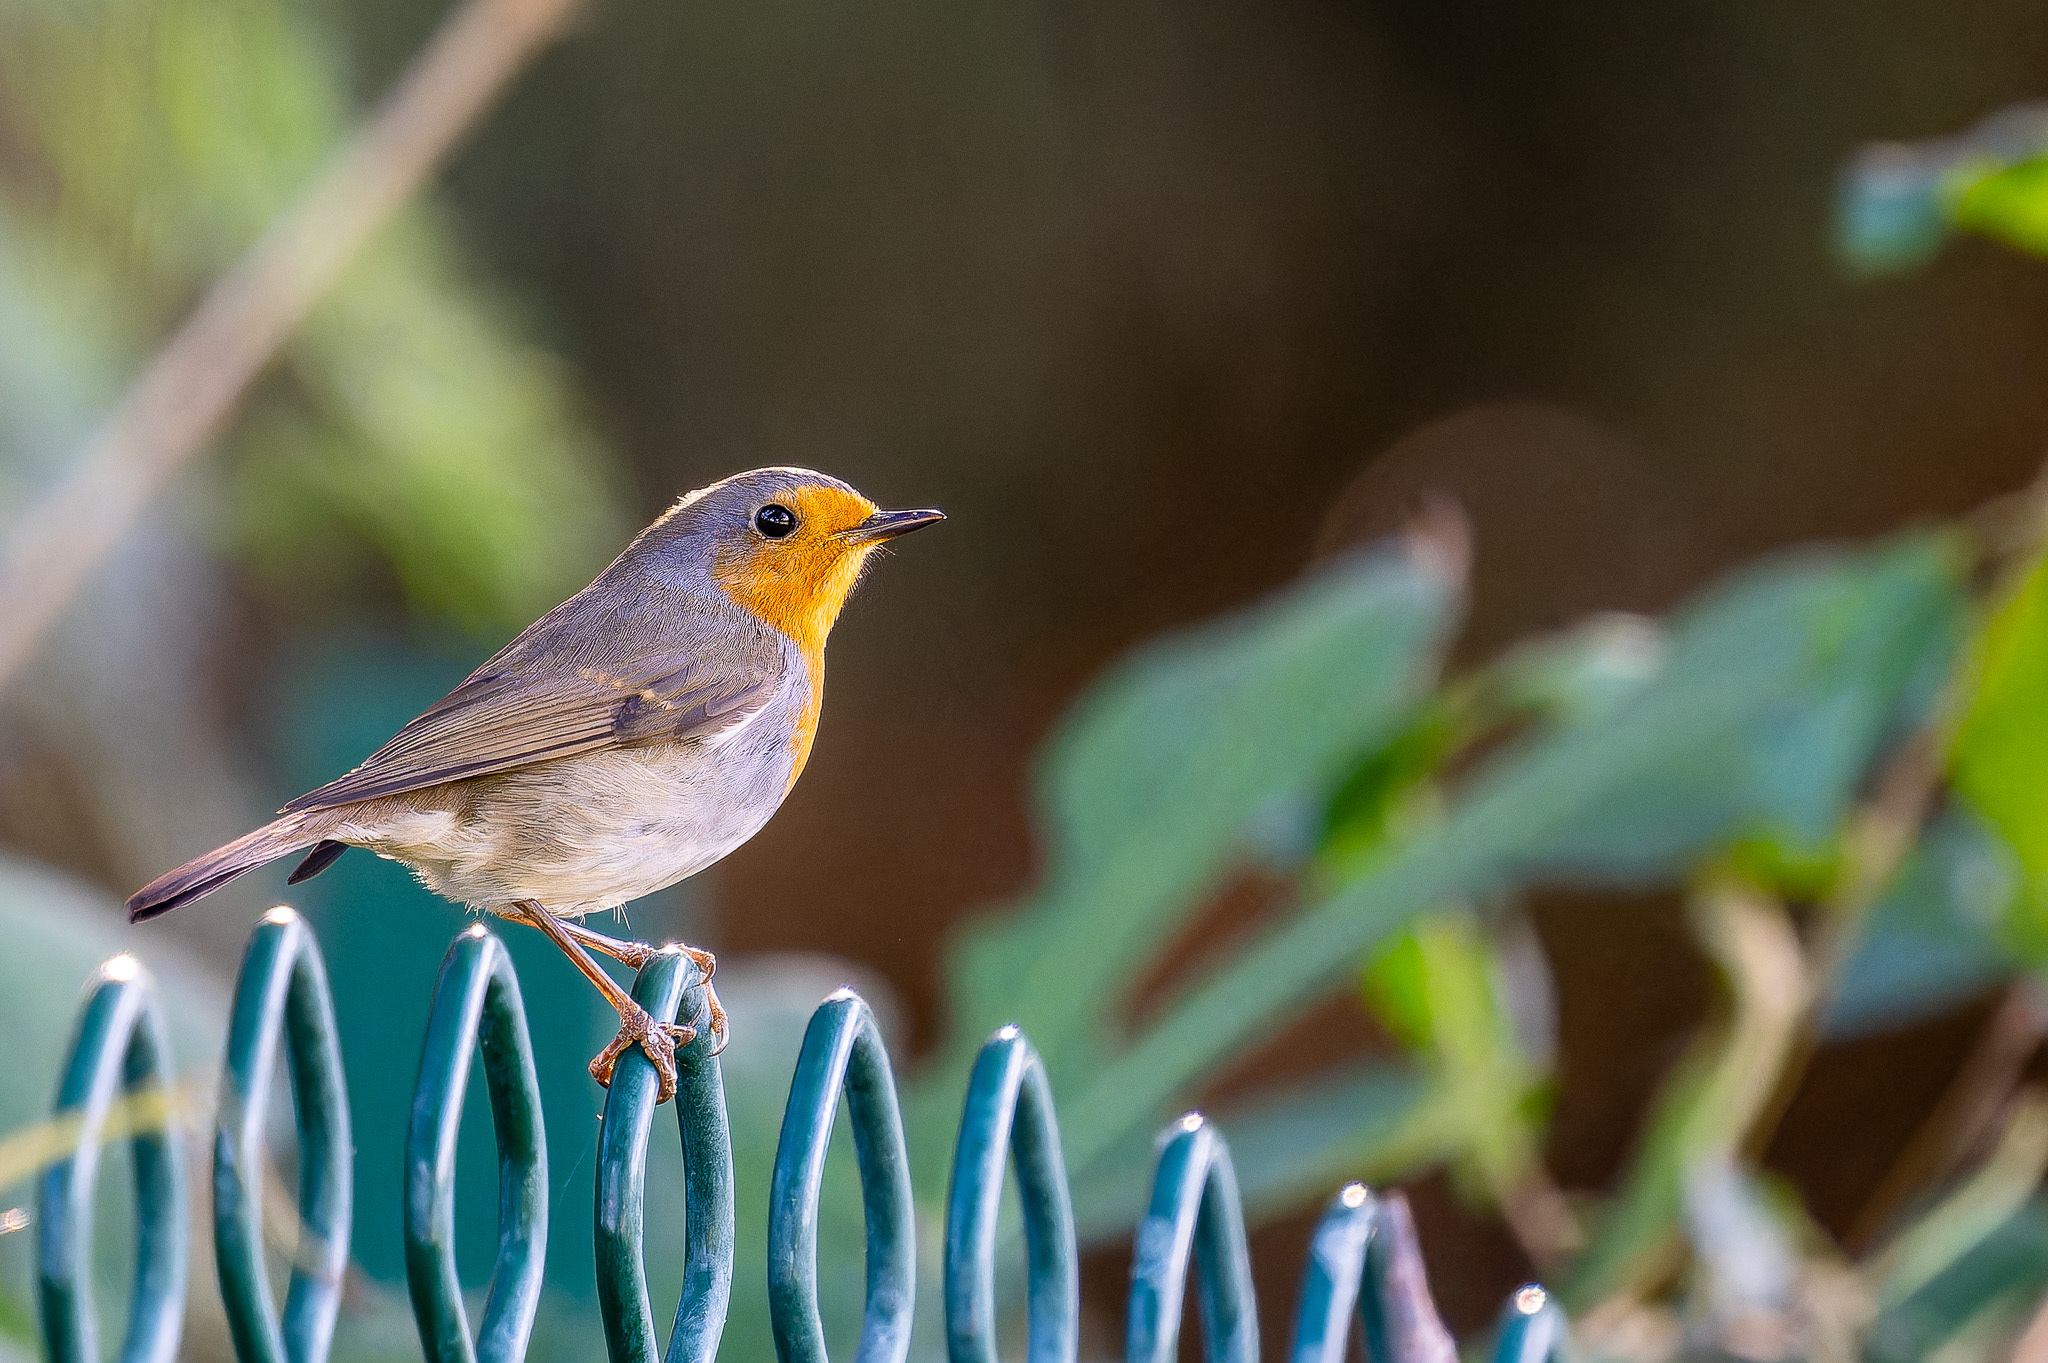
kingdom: Animalia
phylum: Chordata
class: Aves
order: Passeriformes
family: Muscicapidae
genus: Erithacus
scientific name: Erithacus rubecula
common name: European robin
